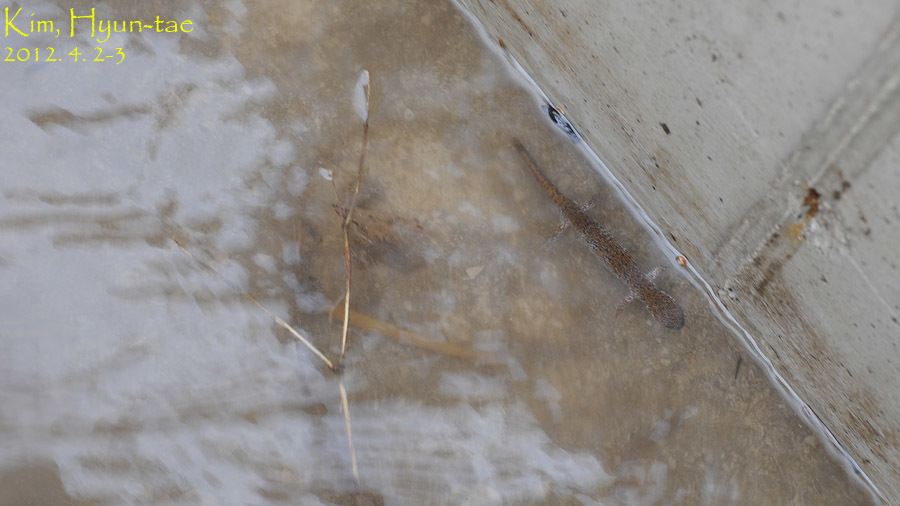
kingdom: Animalia
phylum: Chordata
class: Amphibia
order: Caudata
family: Hynobiidae
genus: Hynobius
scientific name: Hynobius leechii
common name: Gensan salamander
